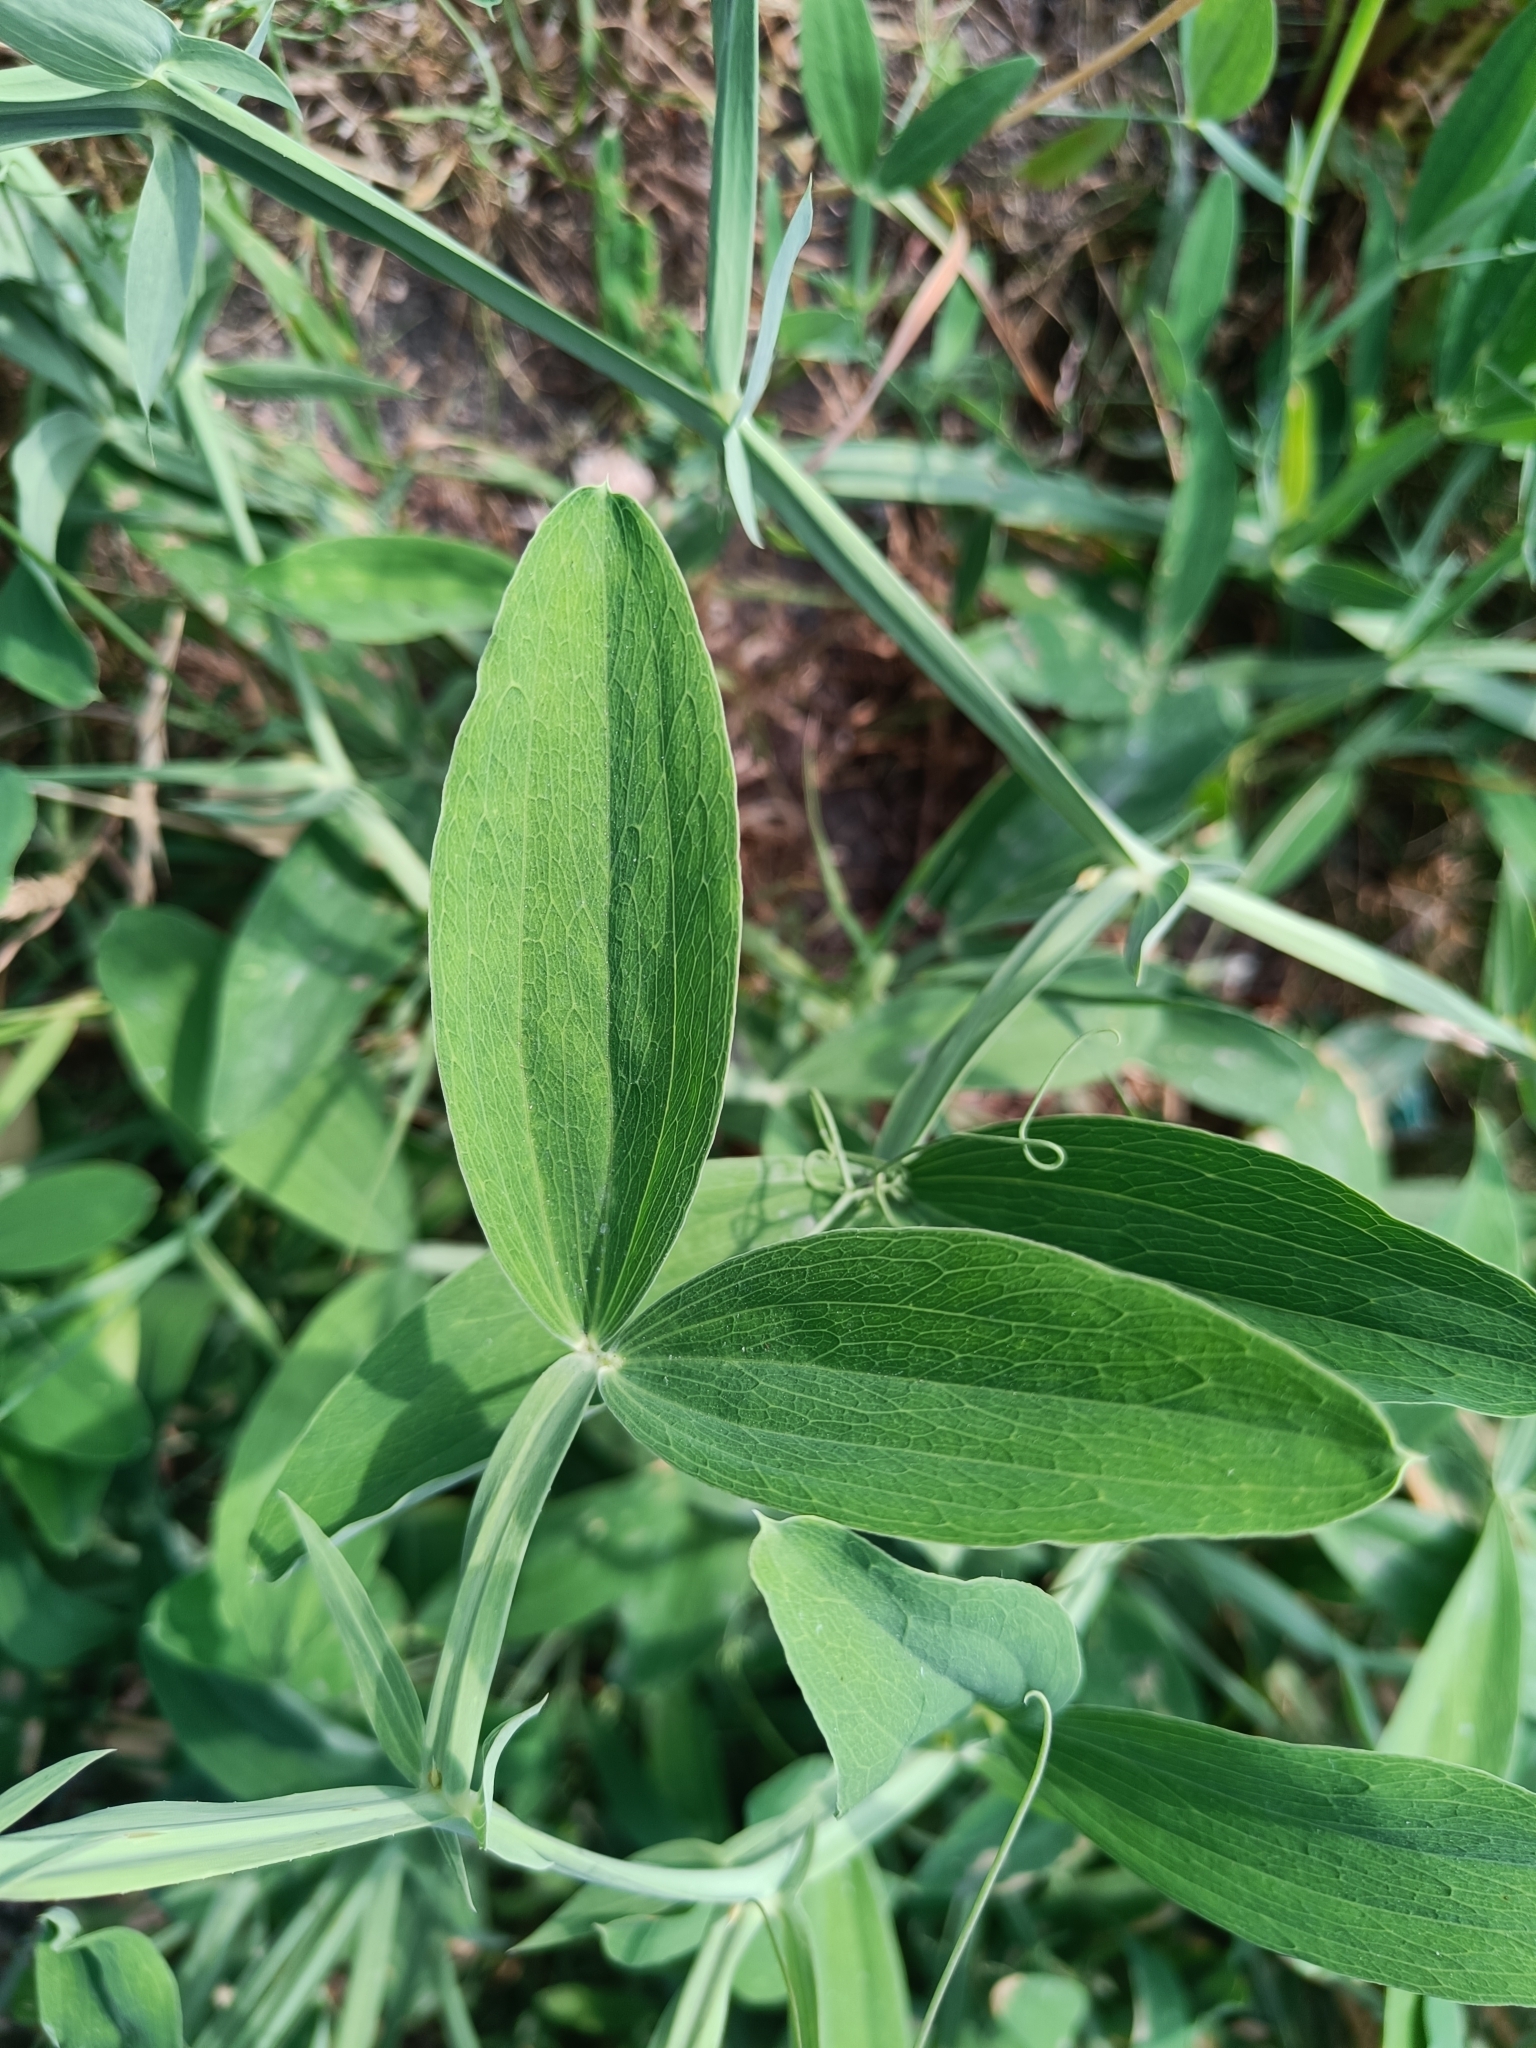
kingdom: Plantae
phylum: Tracheophyta
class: Magnoliopsida
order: Fabales
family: Fabaceae
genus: Lathyrus
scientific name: Lathyrus latifolius
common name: Perennial pea
